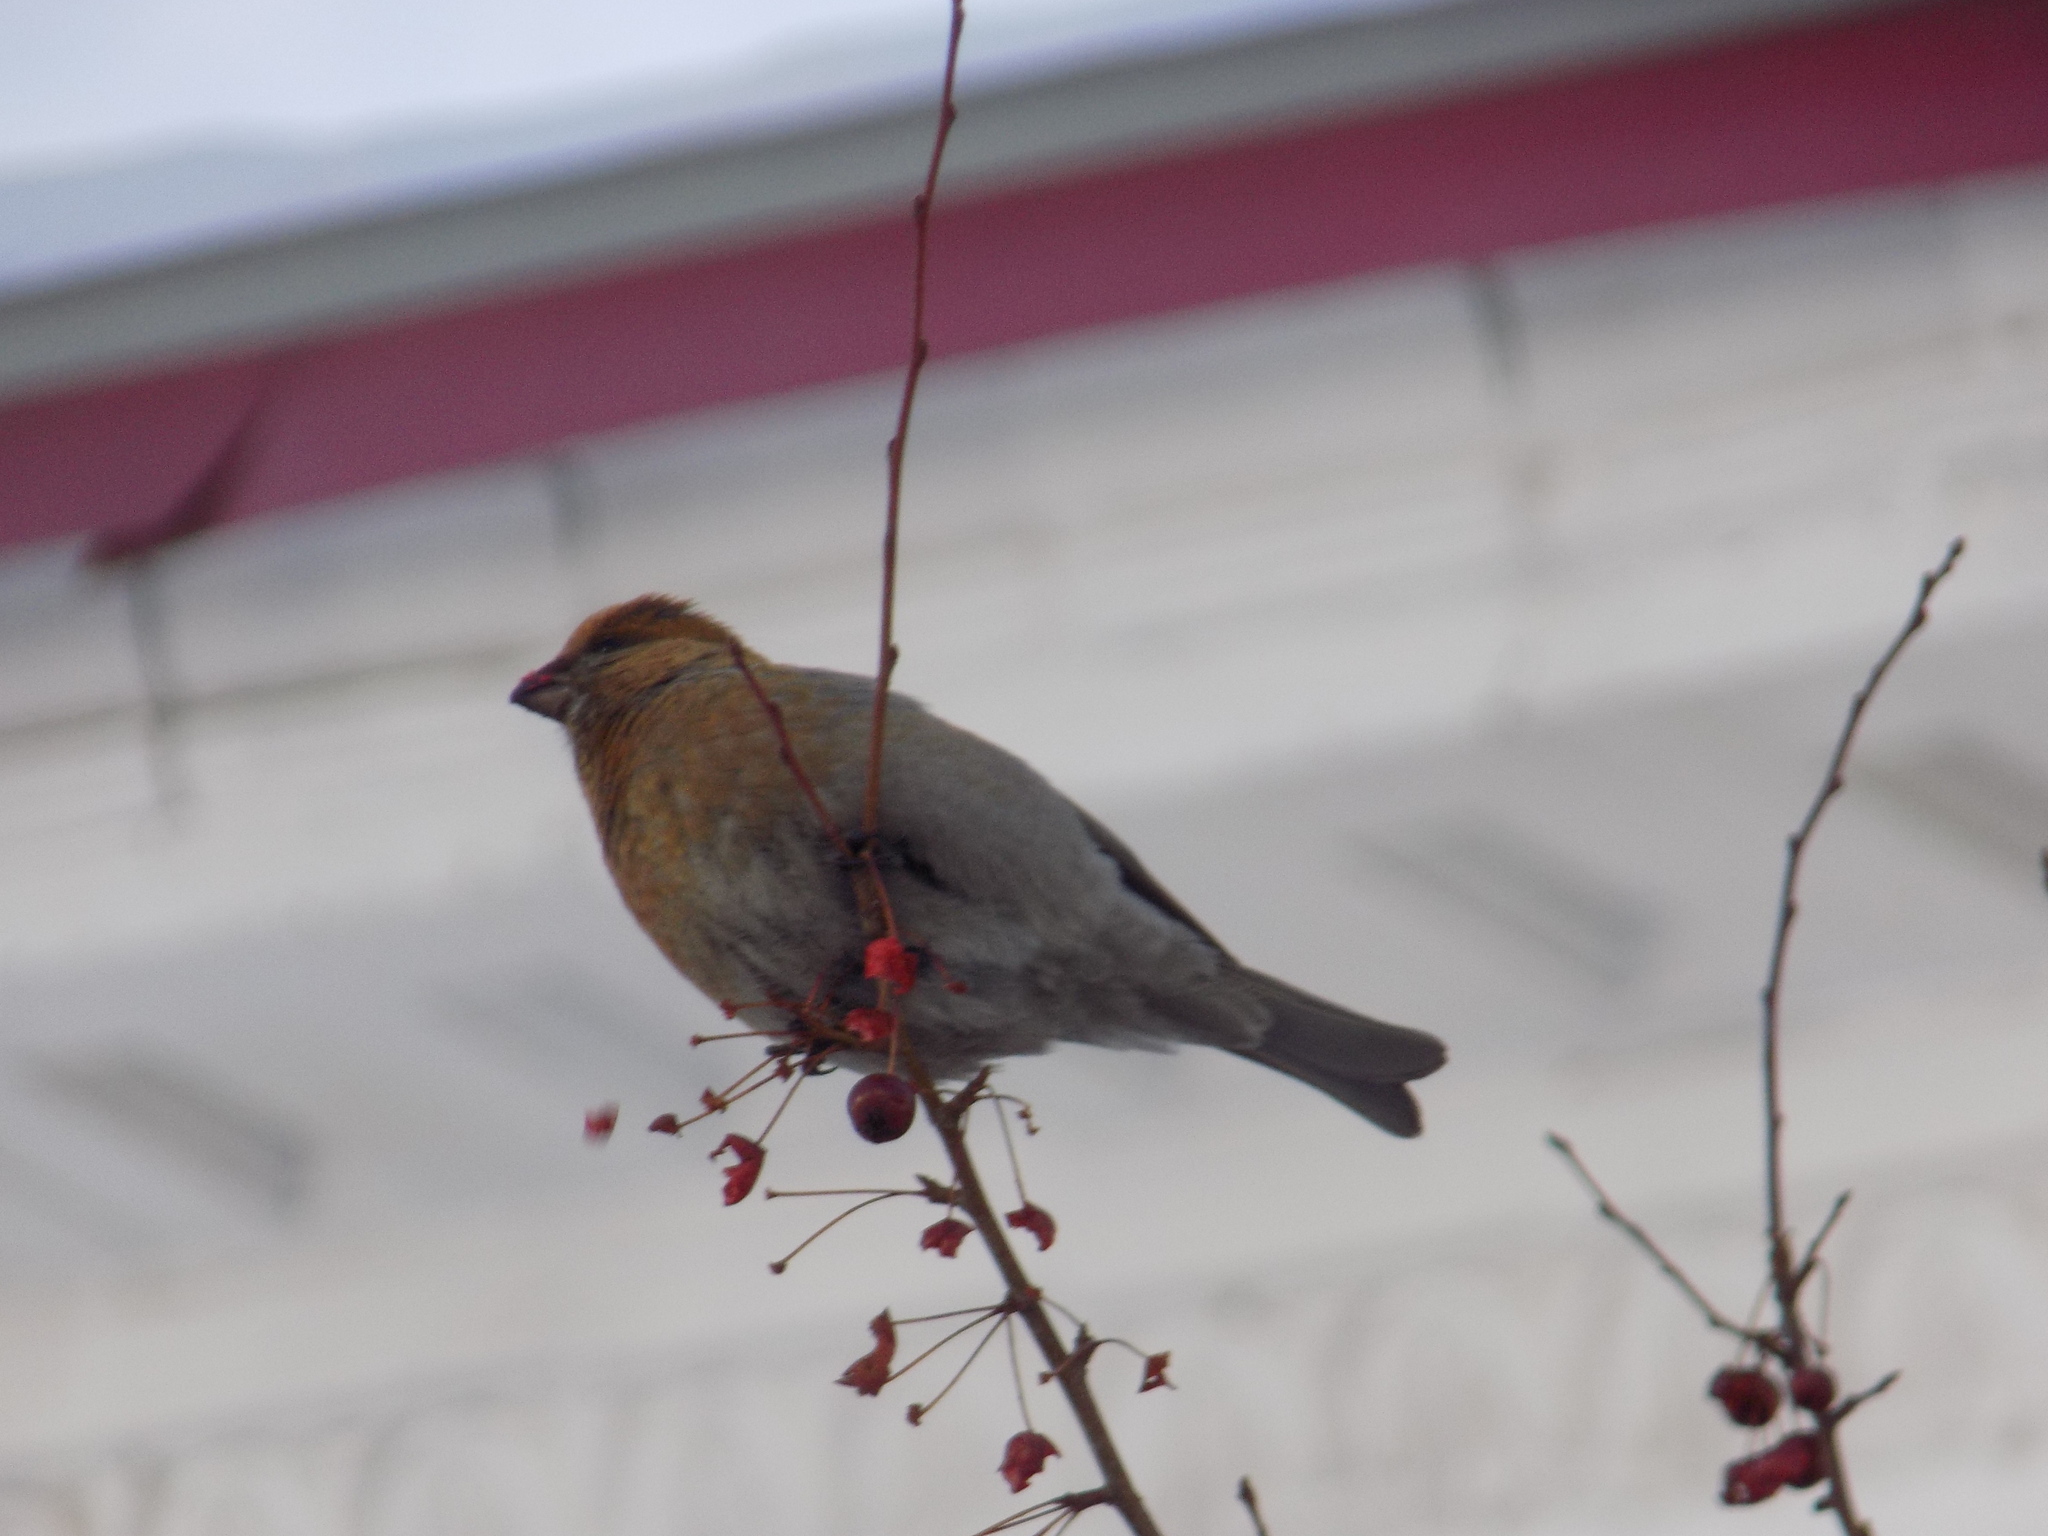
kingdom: Animalia
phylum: Chordata
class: Aves
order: Passeriformes
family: Fringillidae
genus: Pinicola
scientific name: Pinicola enucleator
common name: Pine grosbeak
